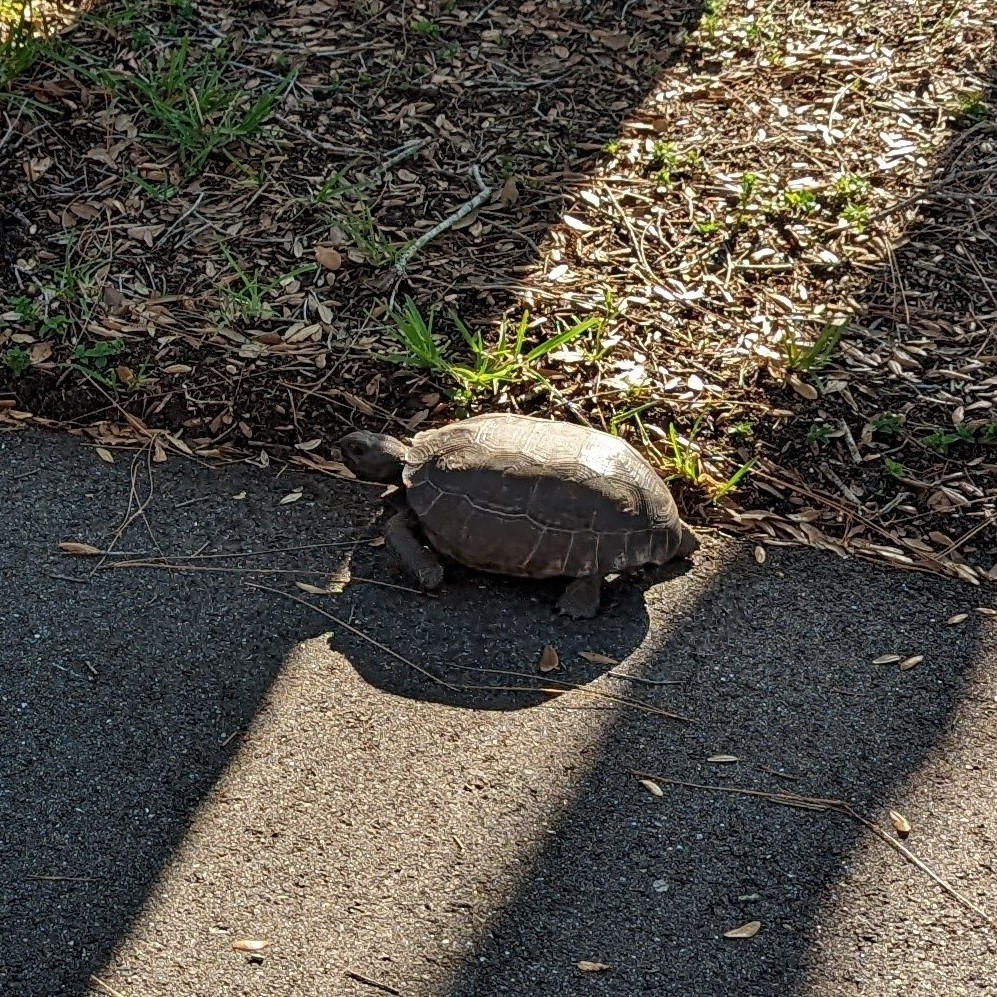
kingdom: Animalia
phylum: Chordata
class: Testudines
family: Testudinidae
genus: Gopherus
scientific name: Gopherus polyphemus
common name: Florida gopher tortoise
